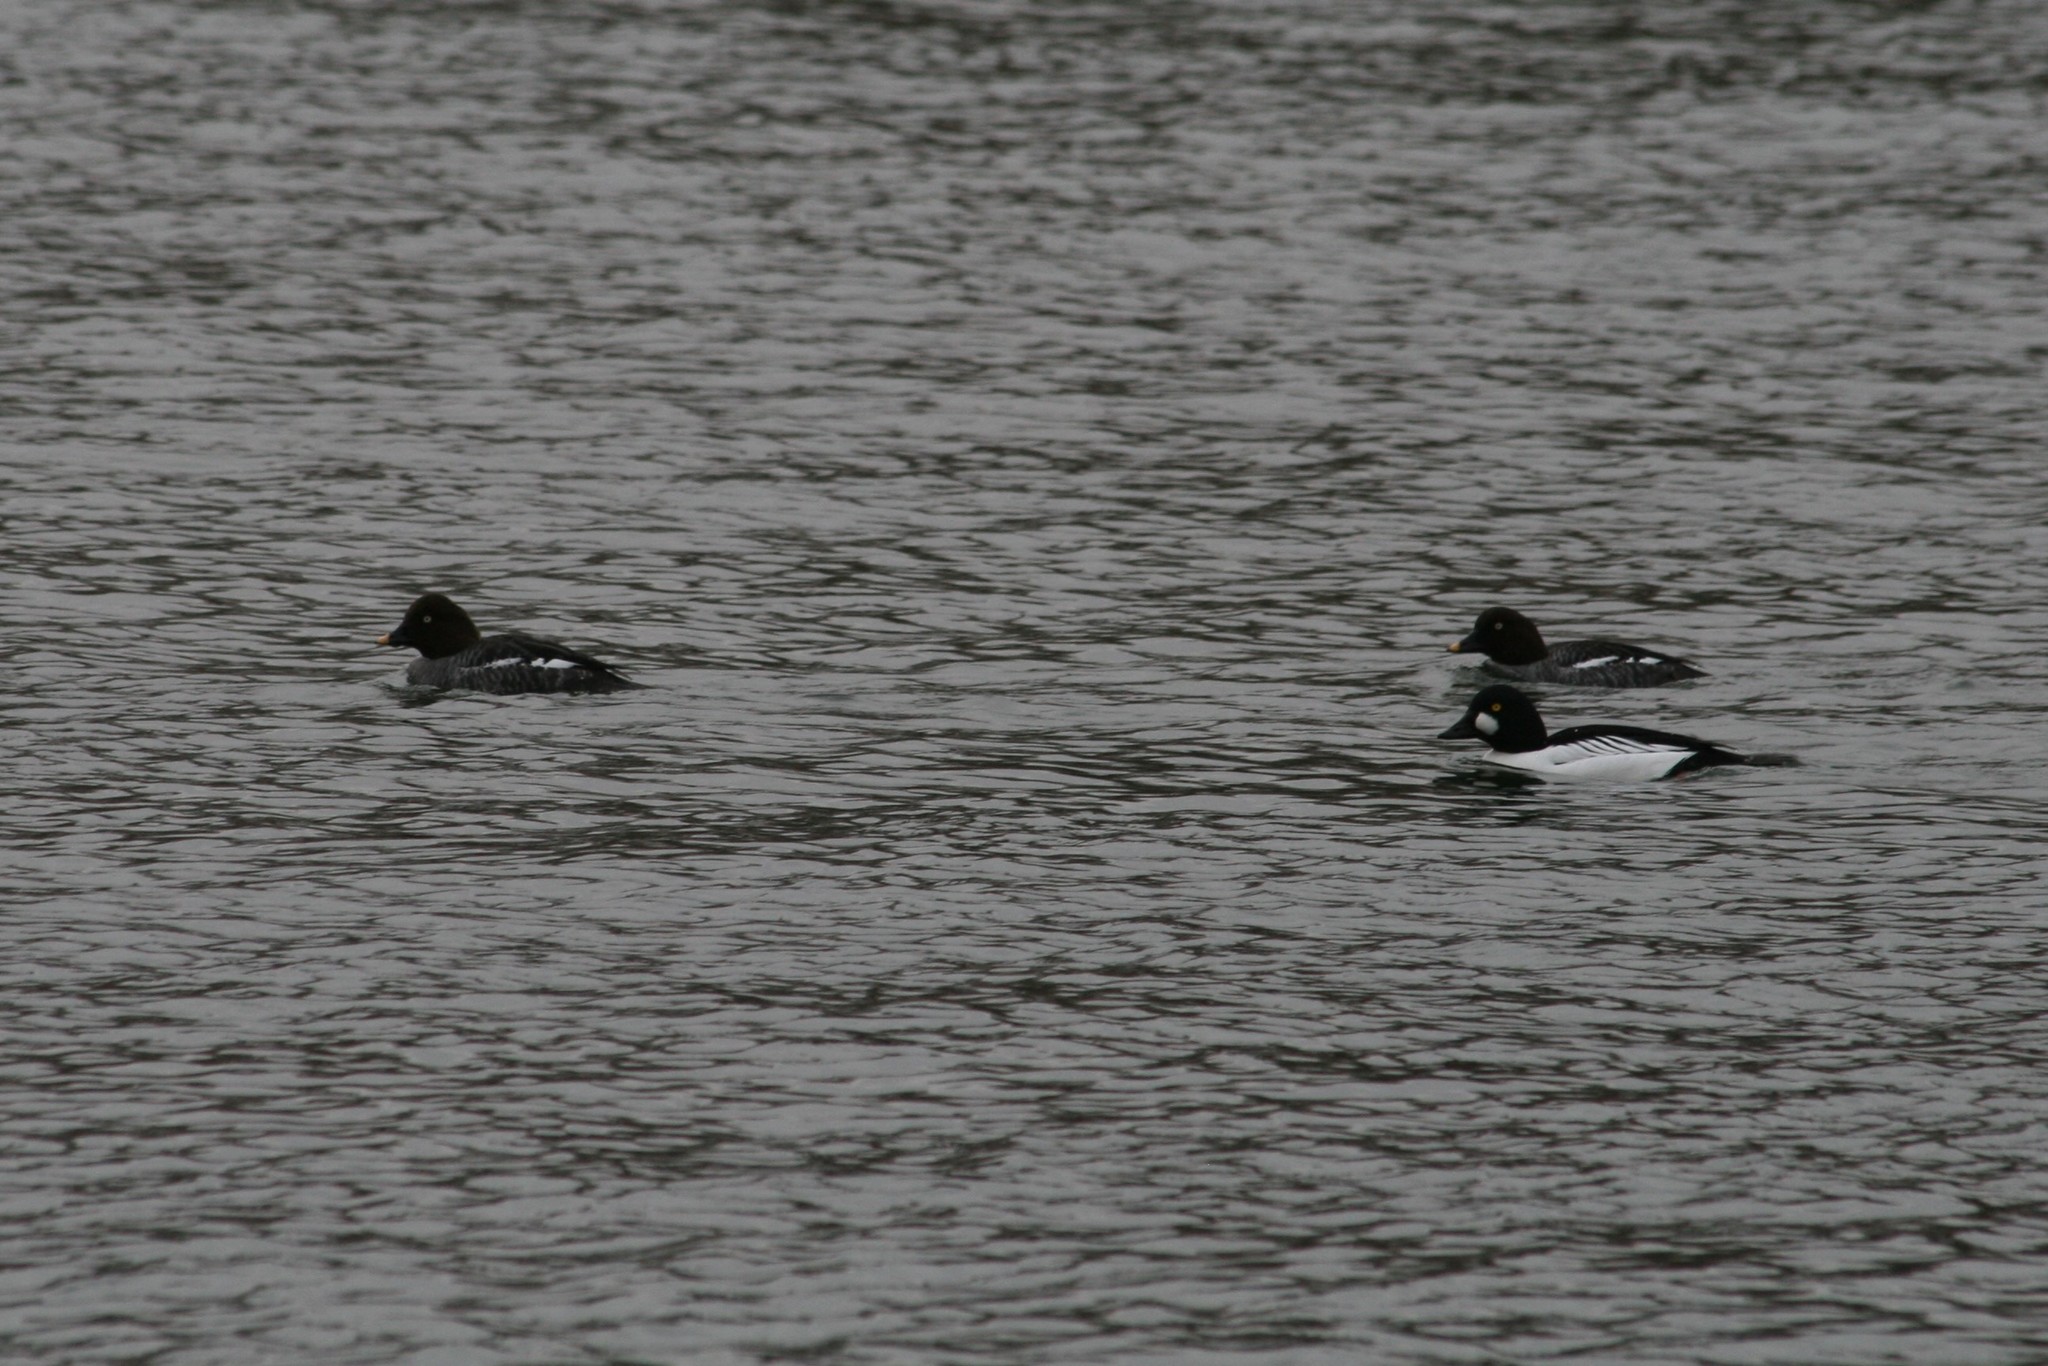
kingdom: Animalia
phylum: Chordata
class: Aves
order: Anseriformes
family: Anatidae
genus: Bucephala
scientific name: Bucephala clangula
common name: Common goldeneye
